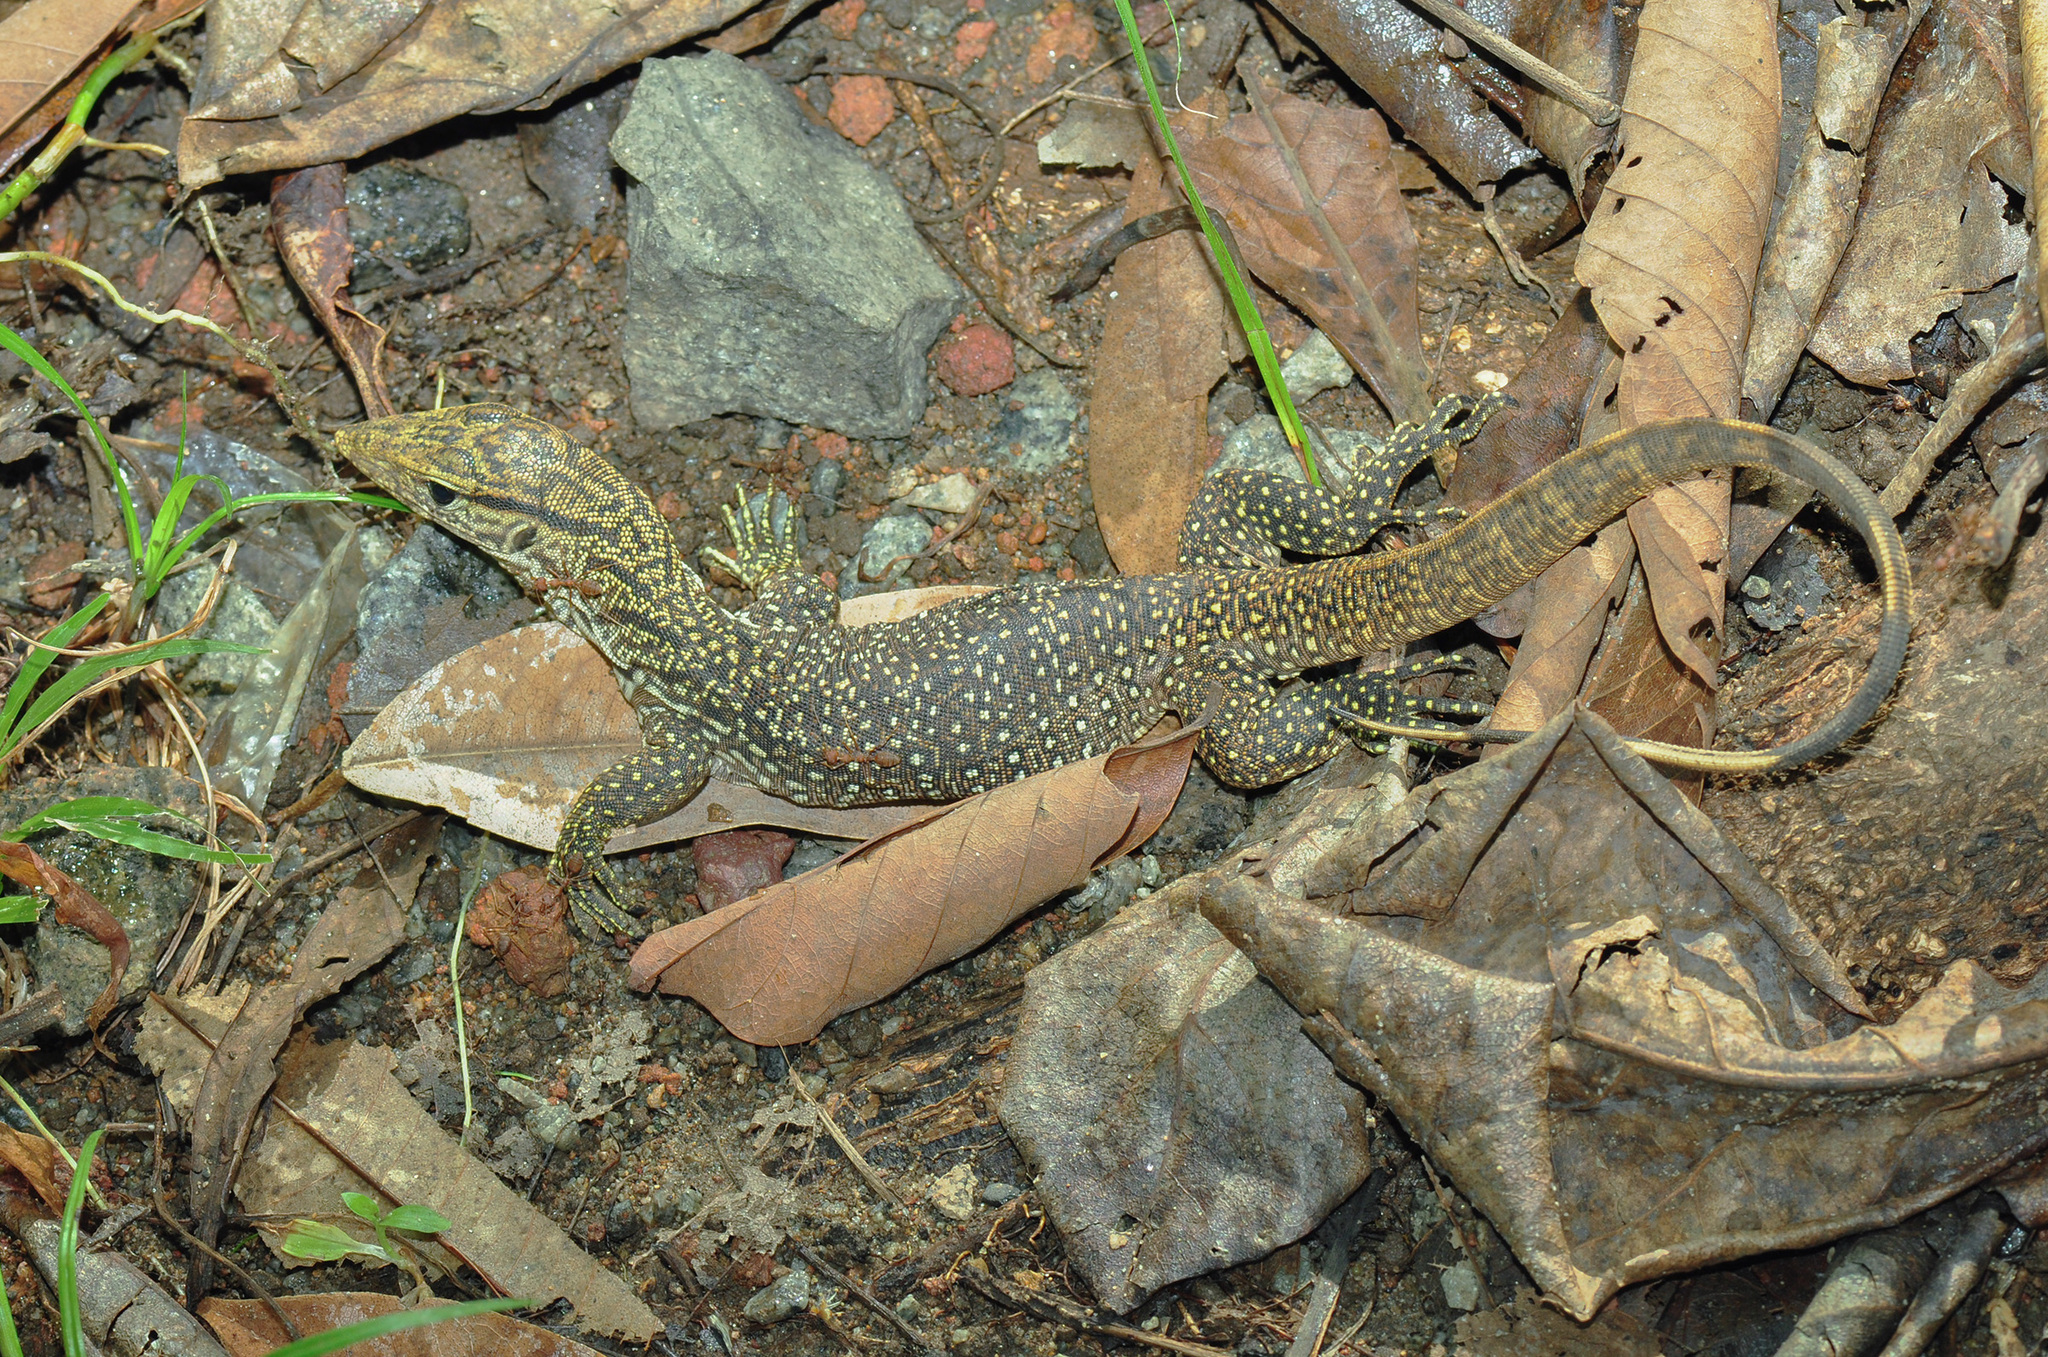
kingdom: Animalia
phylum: Chordata
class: Squamata
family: Varanidae
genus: Varanus
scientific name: Varanus nebulosus
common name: Clouded monitor
